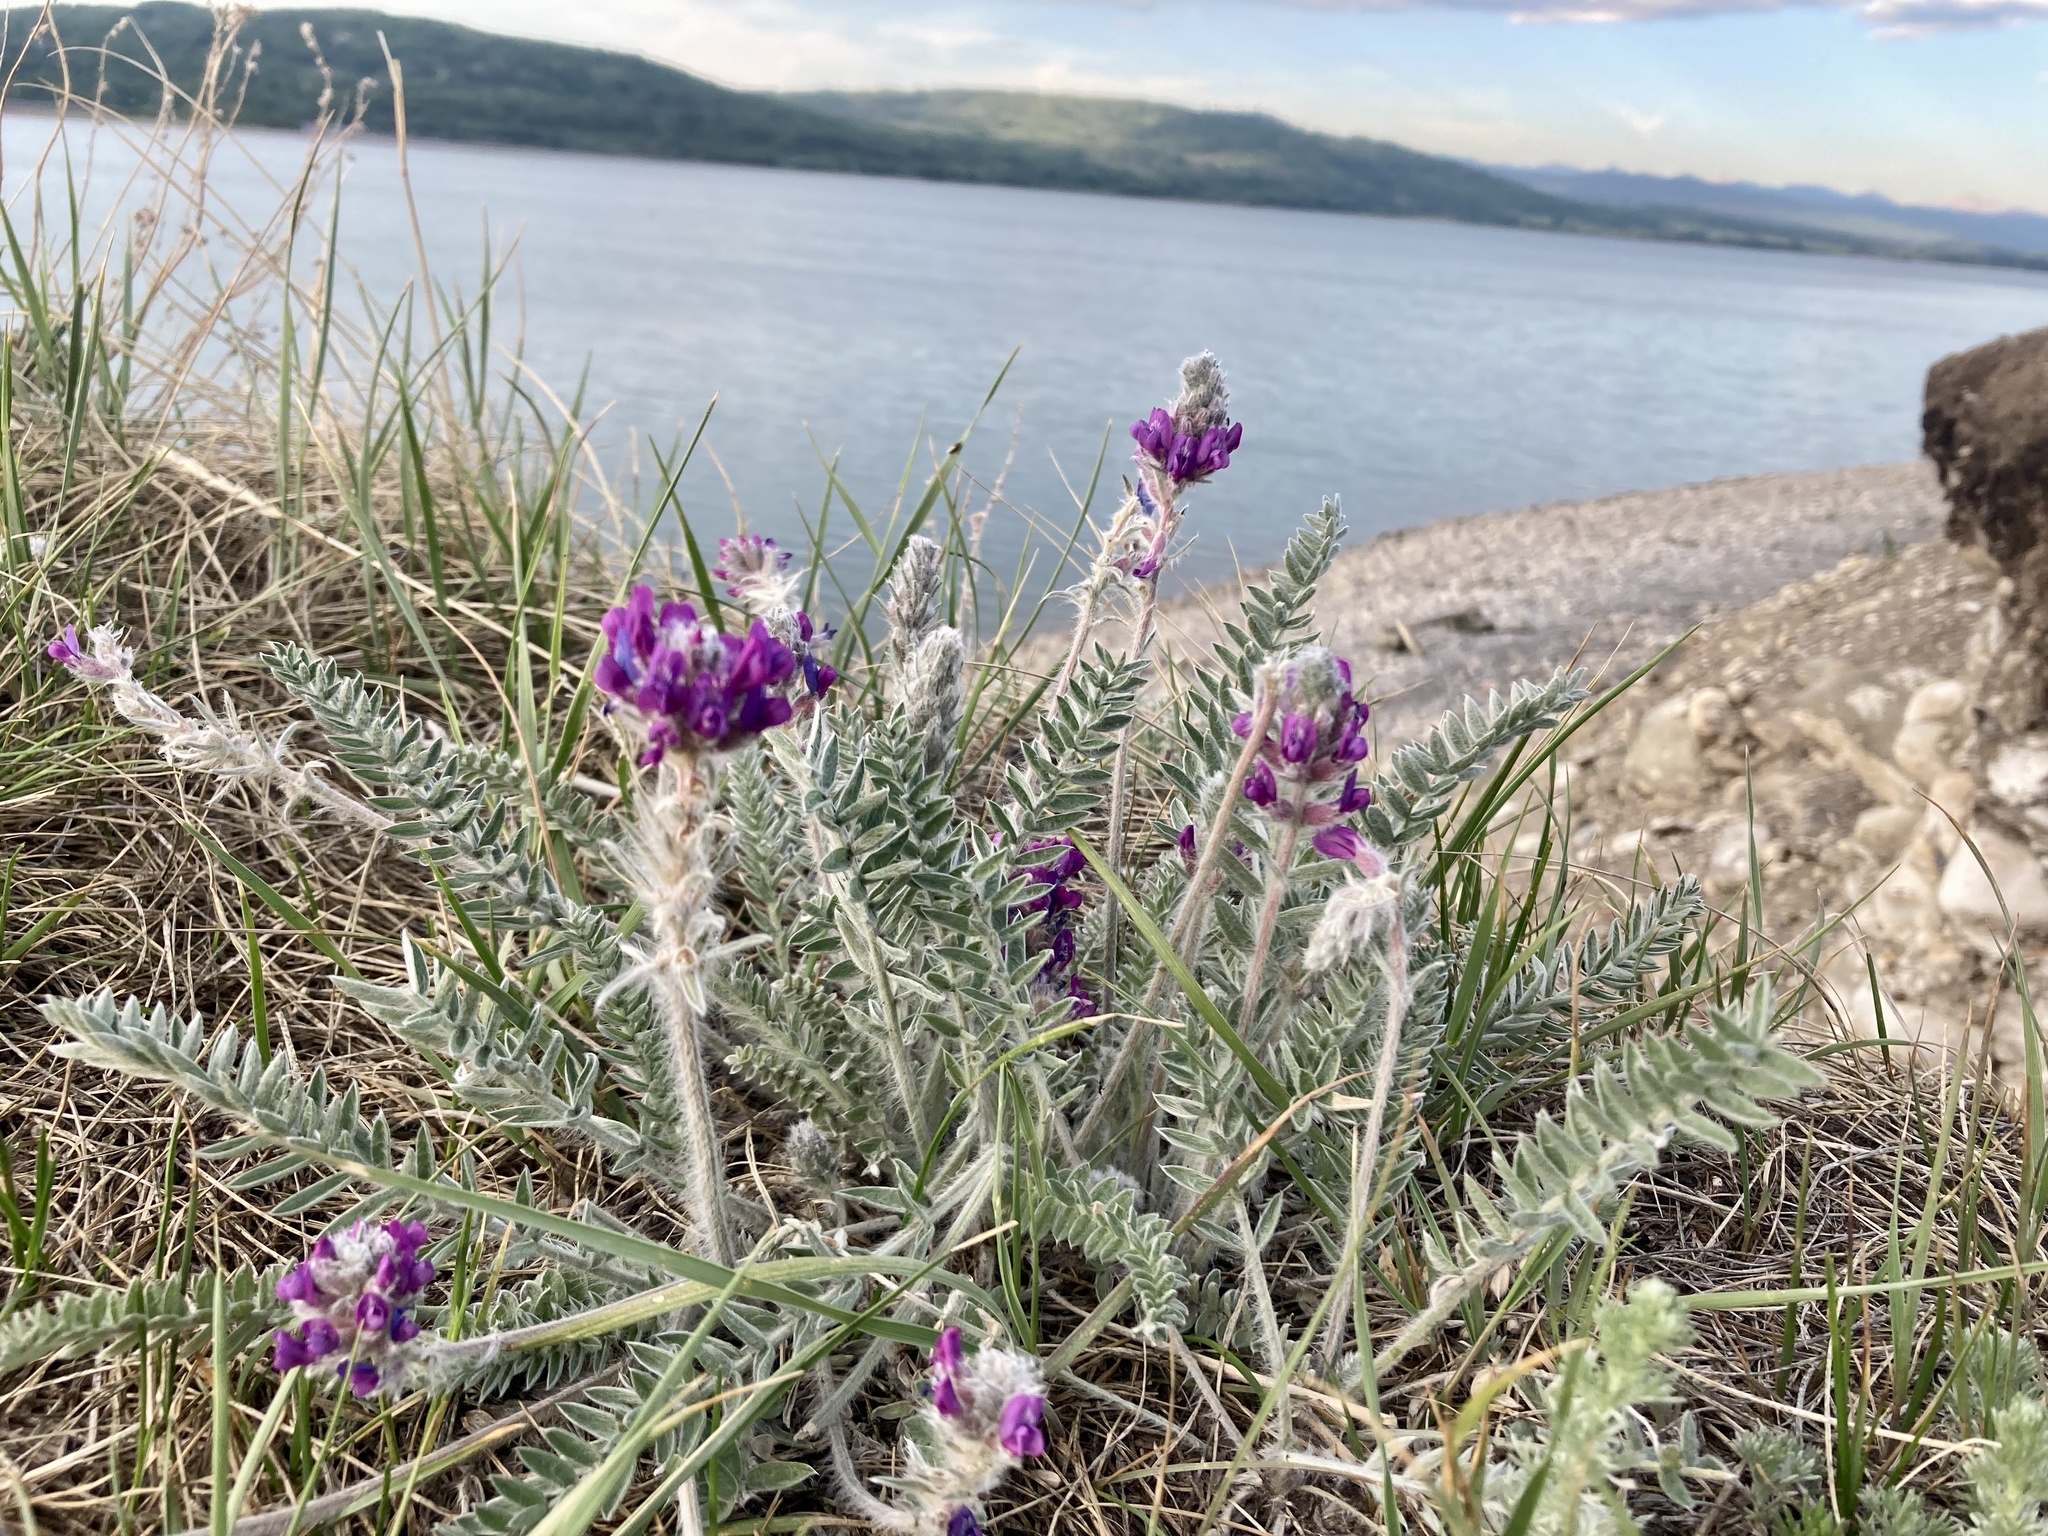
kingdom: Plantae
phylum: Tracheophyta
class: Magnoliopsida
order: Fabales
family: Fabaceae
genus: Oxytropis
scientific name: Oxytropis splendens
